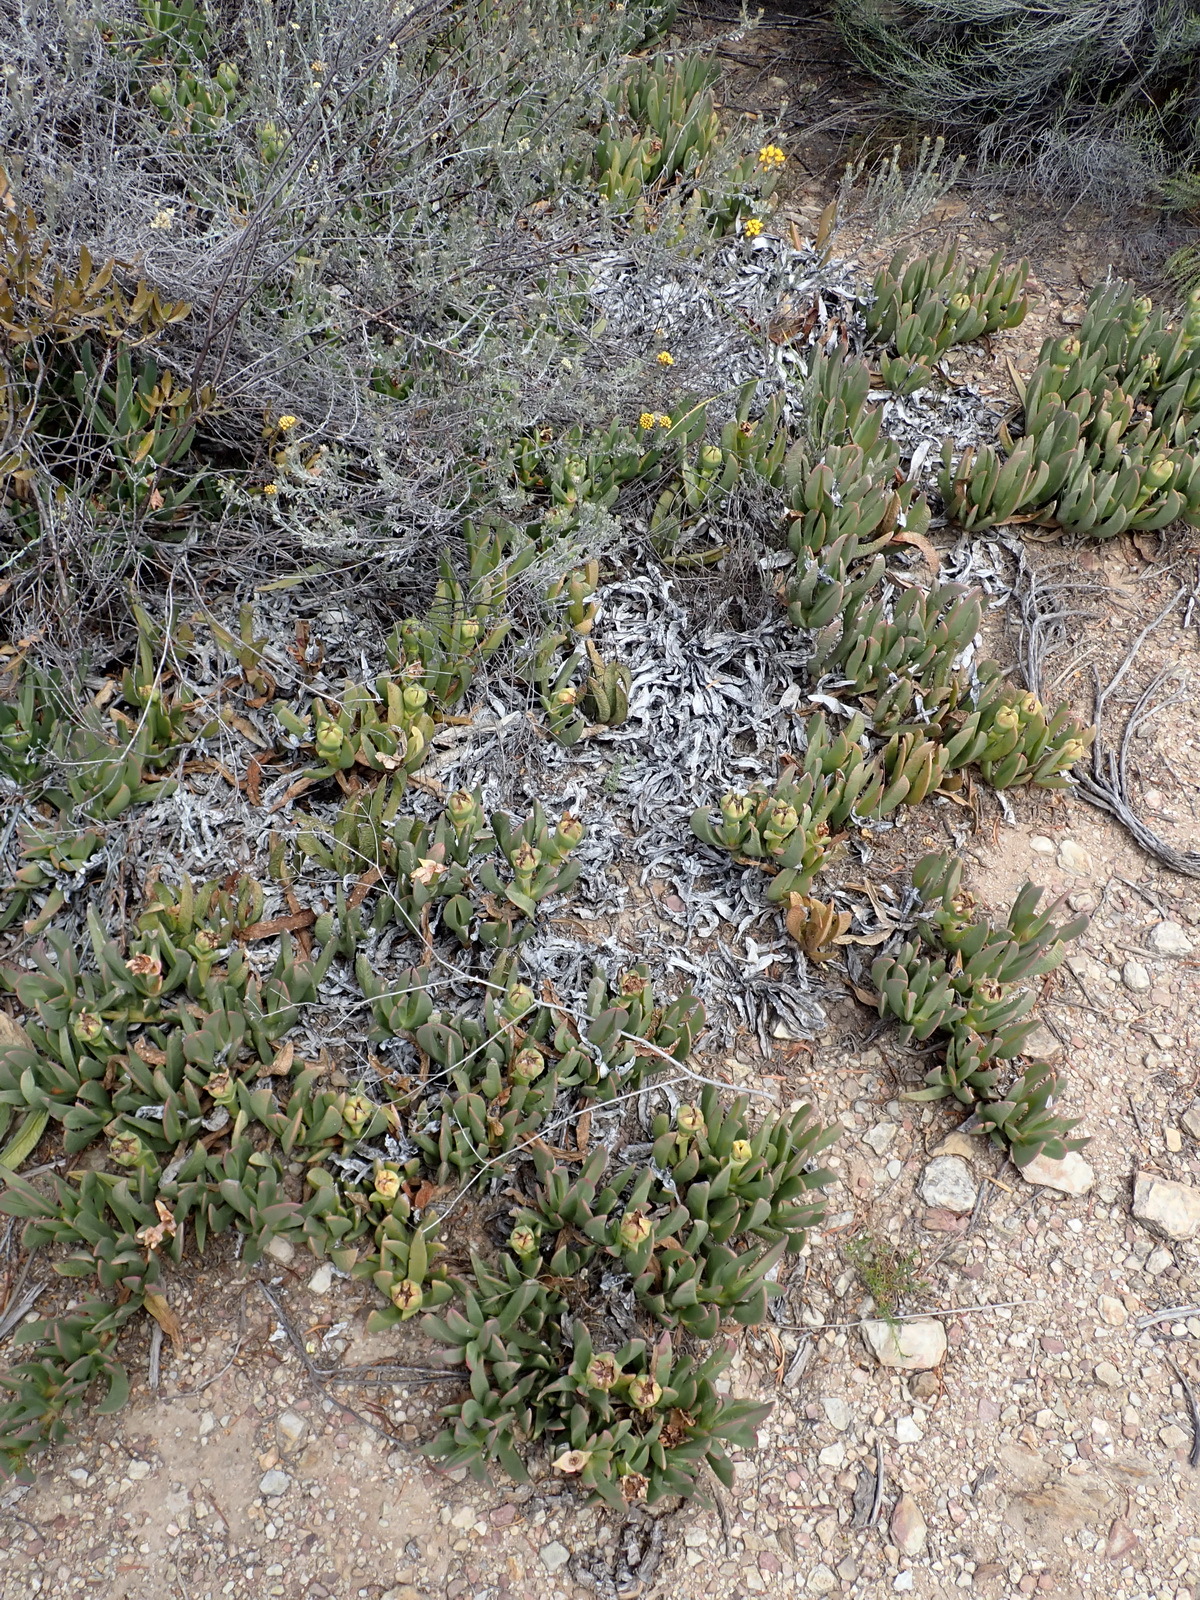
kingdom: Plantae
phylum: Tracheophyta
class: Magnoliopsida
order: Caryophyllales
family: Aizoaceae
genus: Carpobrotus
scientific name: Carpobrotus mellei
